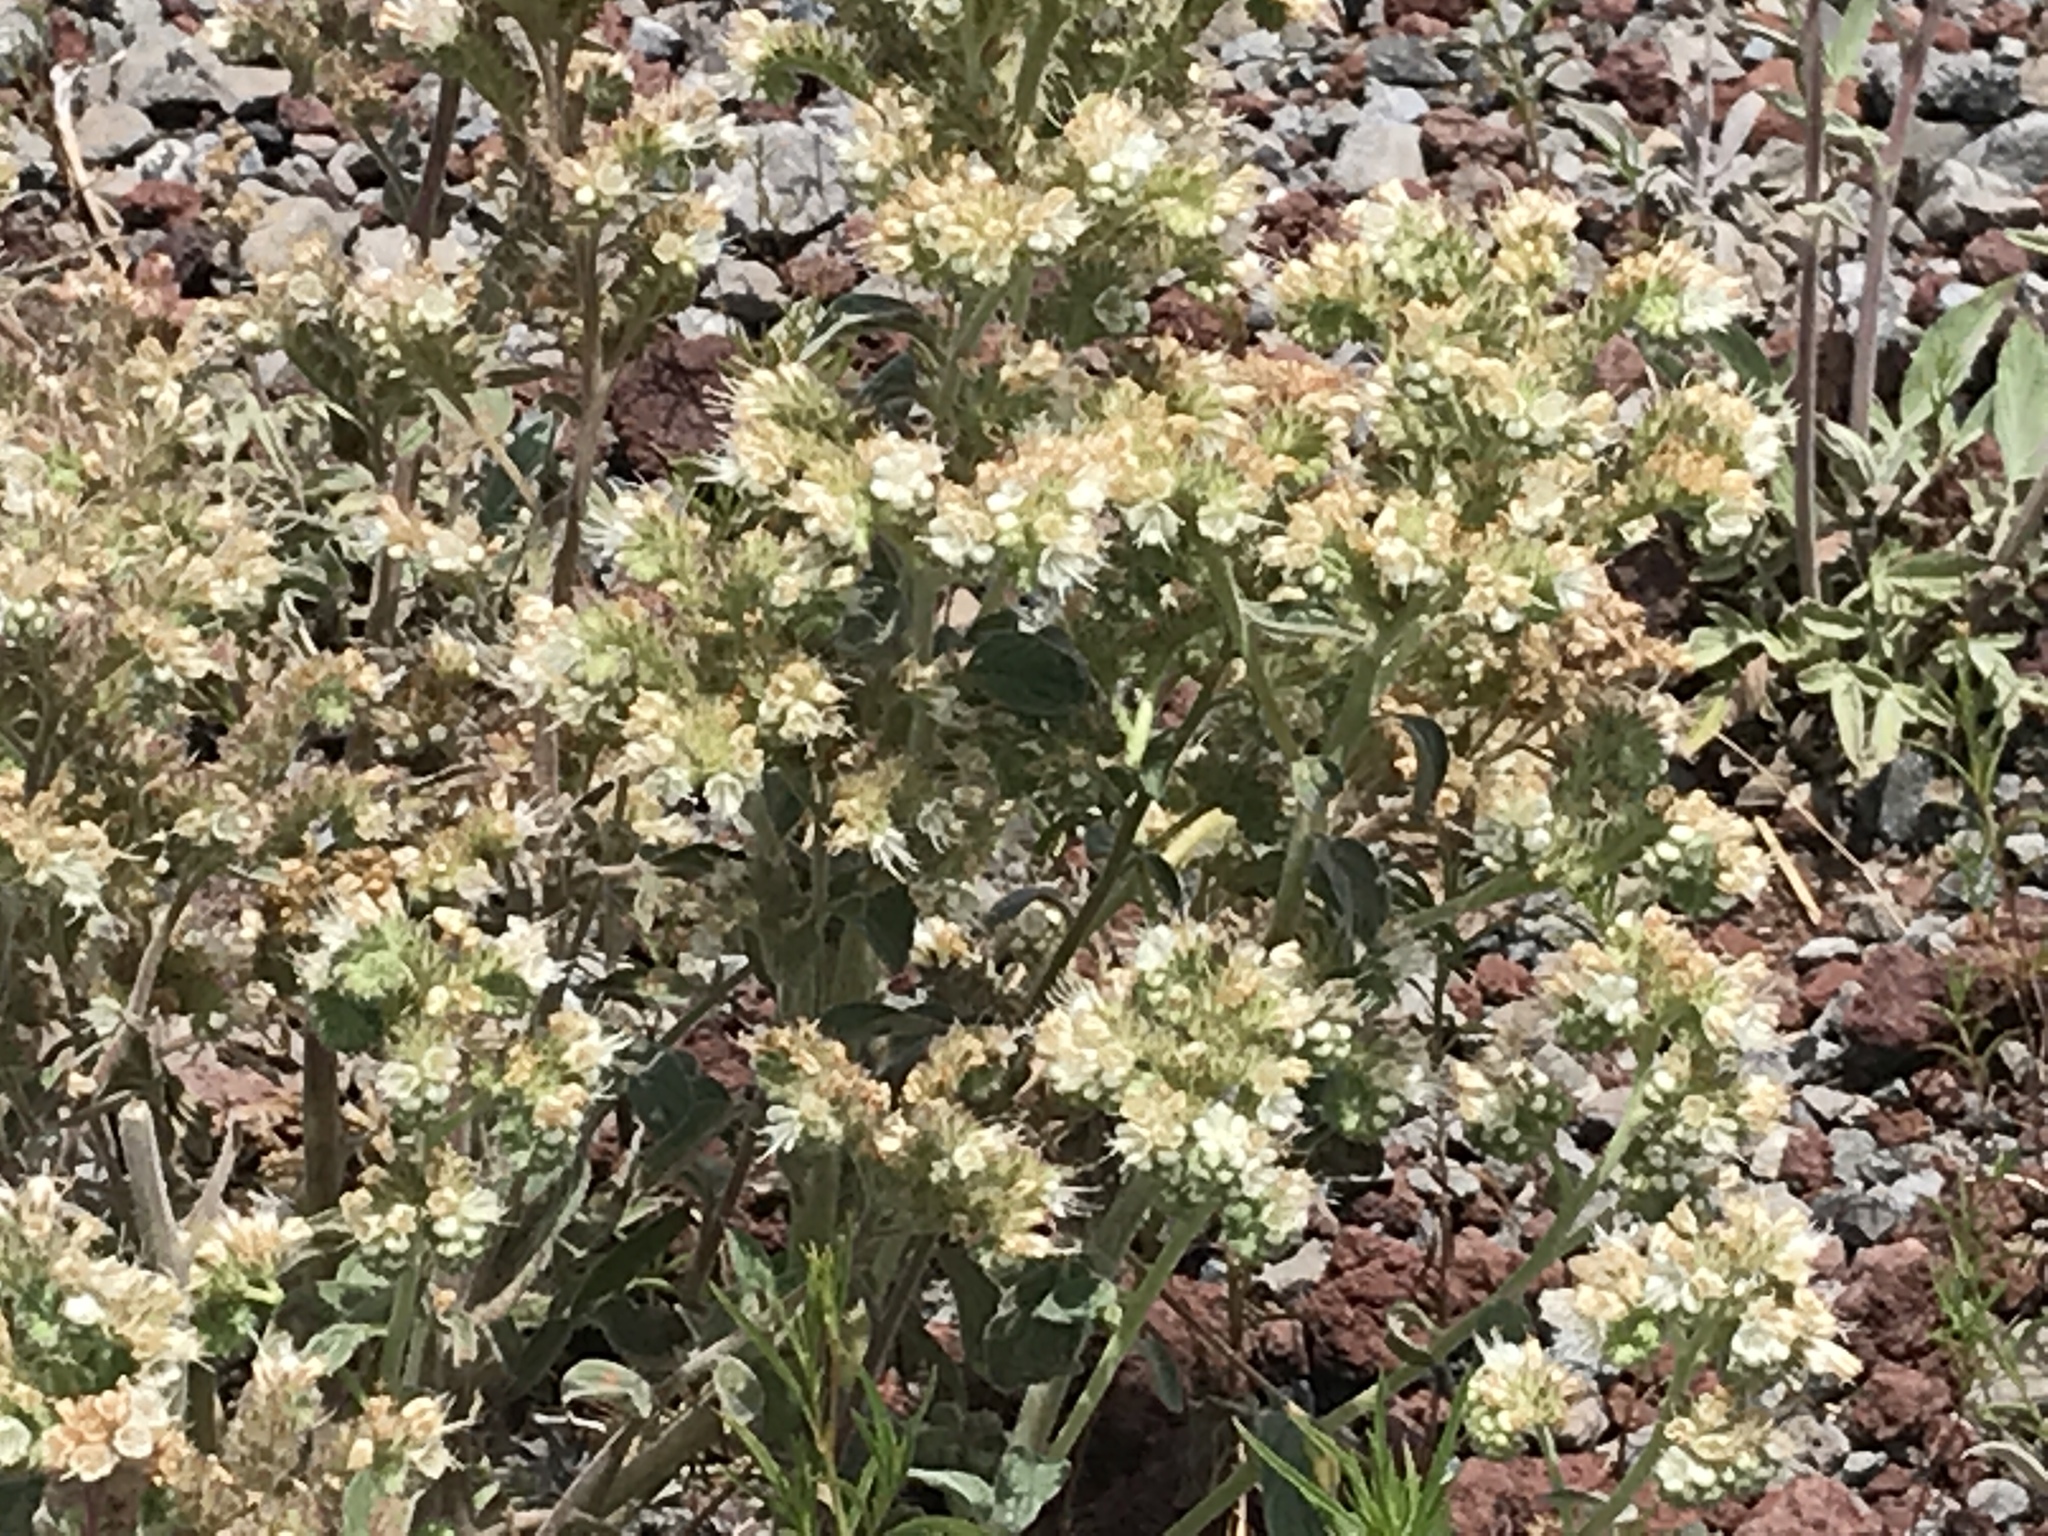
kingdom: Plantae
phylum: Tracheophyta
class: Magnoliopsida
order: Boraginales
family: Hydrophyllaceae
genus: Phacelia
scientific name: Phacelia hastata
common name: Silver-leaved phacelia
